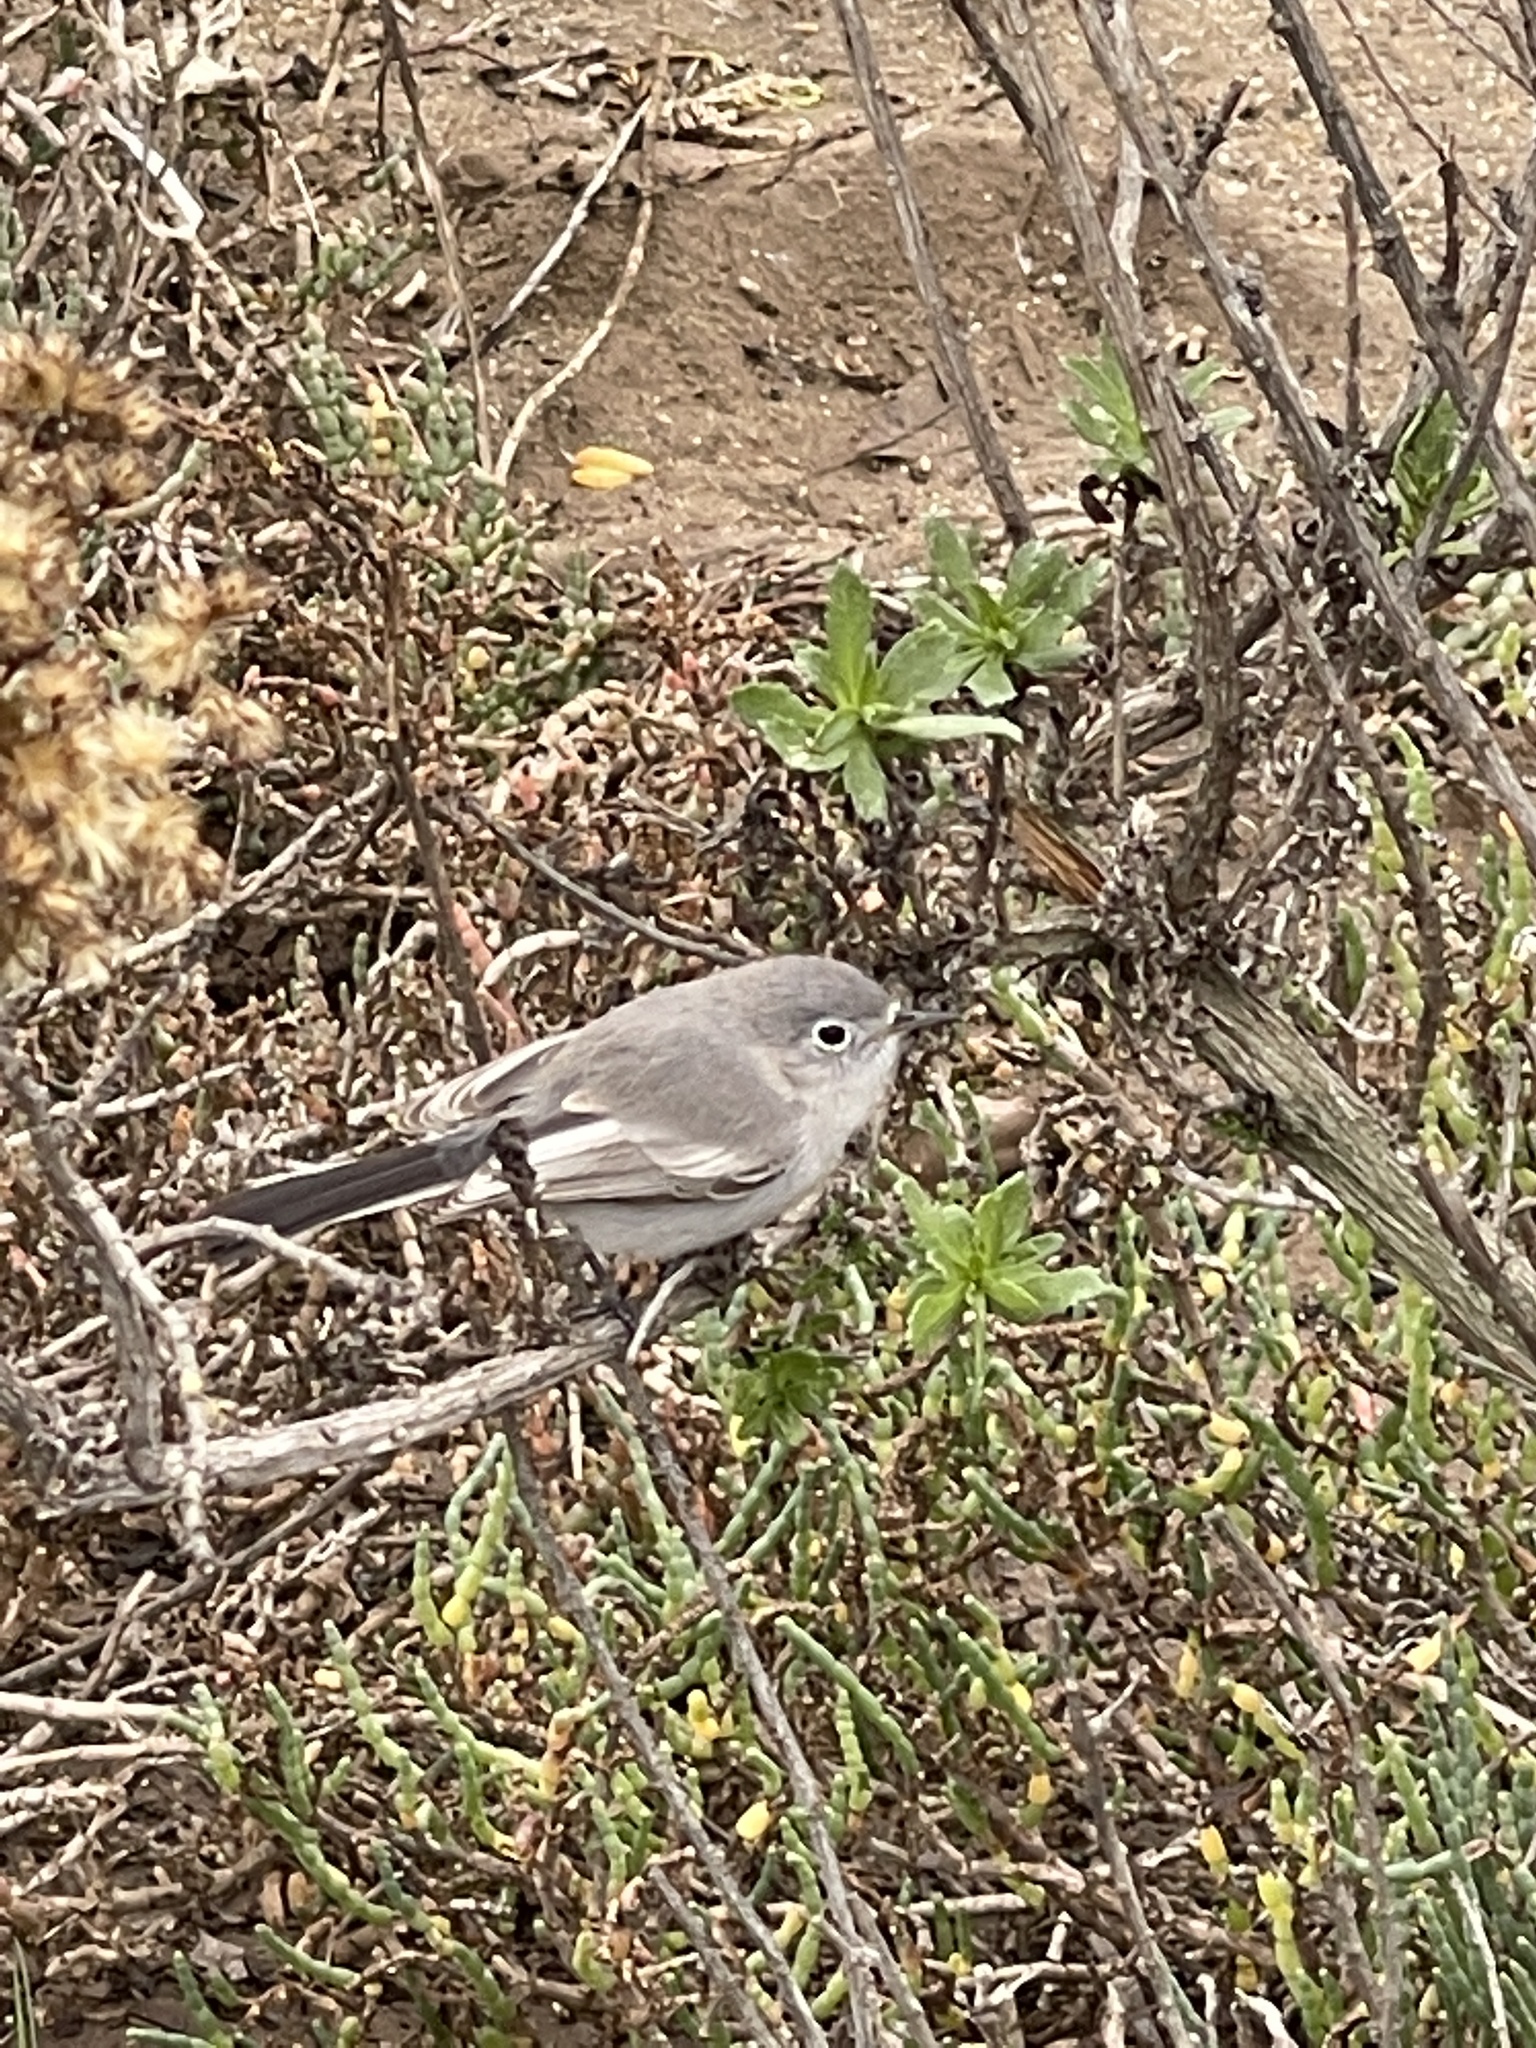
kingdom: Animalia
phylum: Chordata
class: Aves
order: Passeriformes
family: Polioptilidae
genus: Polioptila
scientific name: Polioptila caerulea
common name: Blue-gray gnatcatcher
